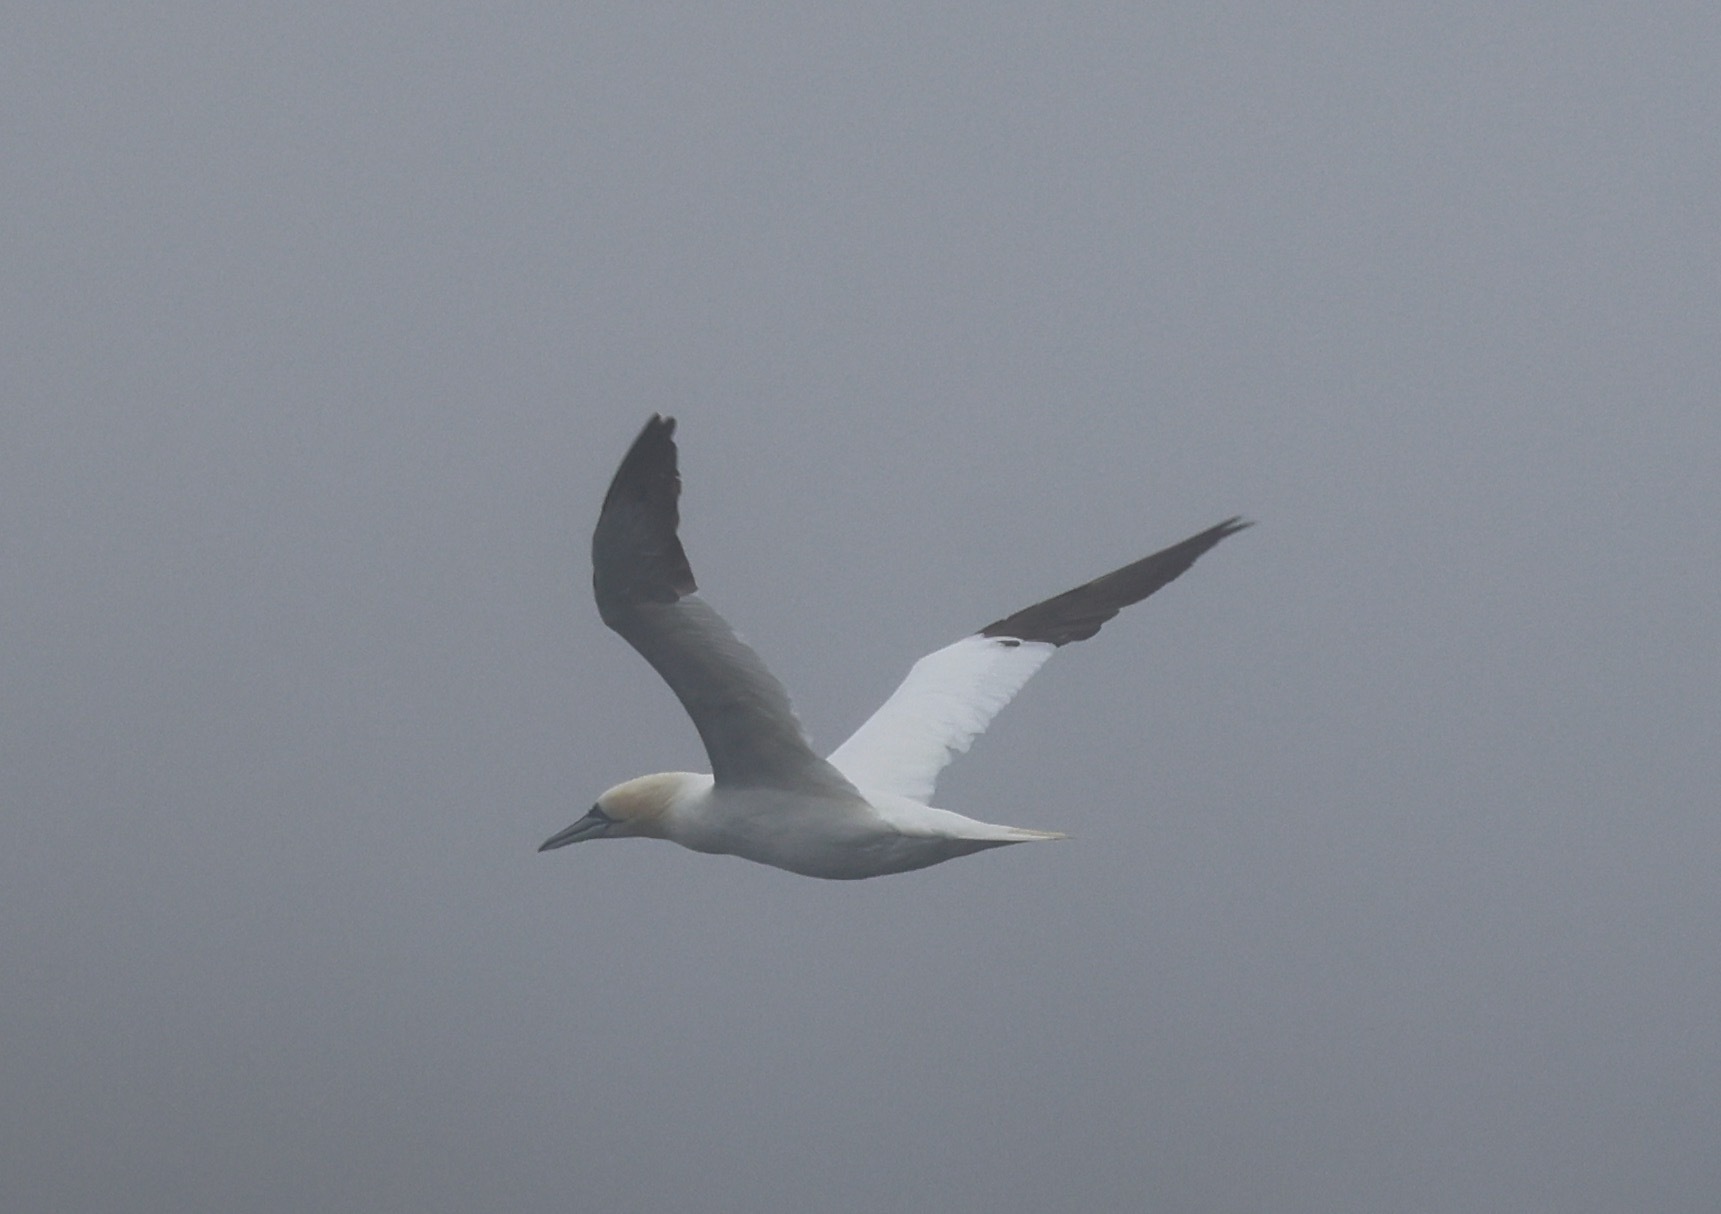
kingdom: Animalia
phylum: Chordata
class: Aves
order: Suliformes
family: Sulidae
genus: Morus
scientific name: Morus bassanus
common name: Northern gannet
